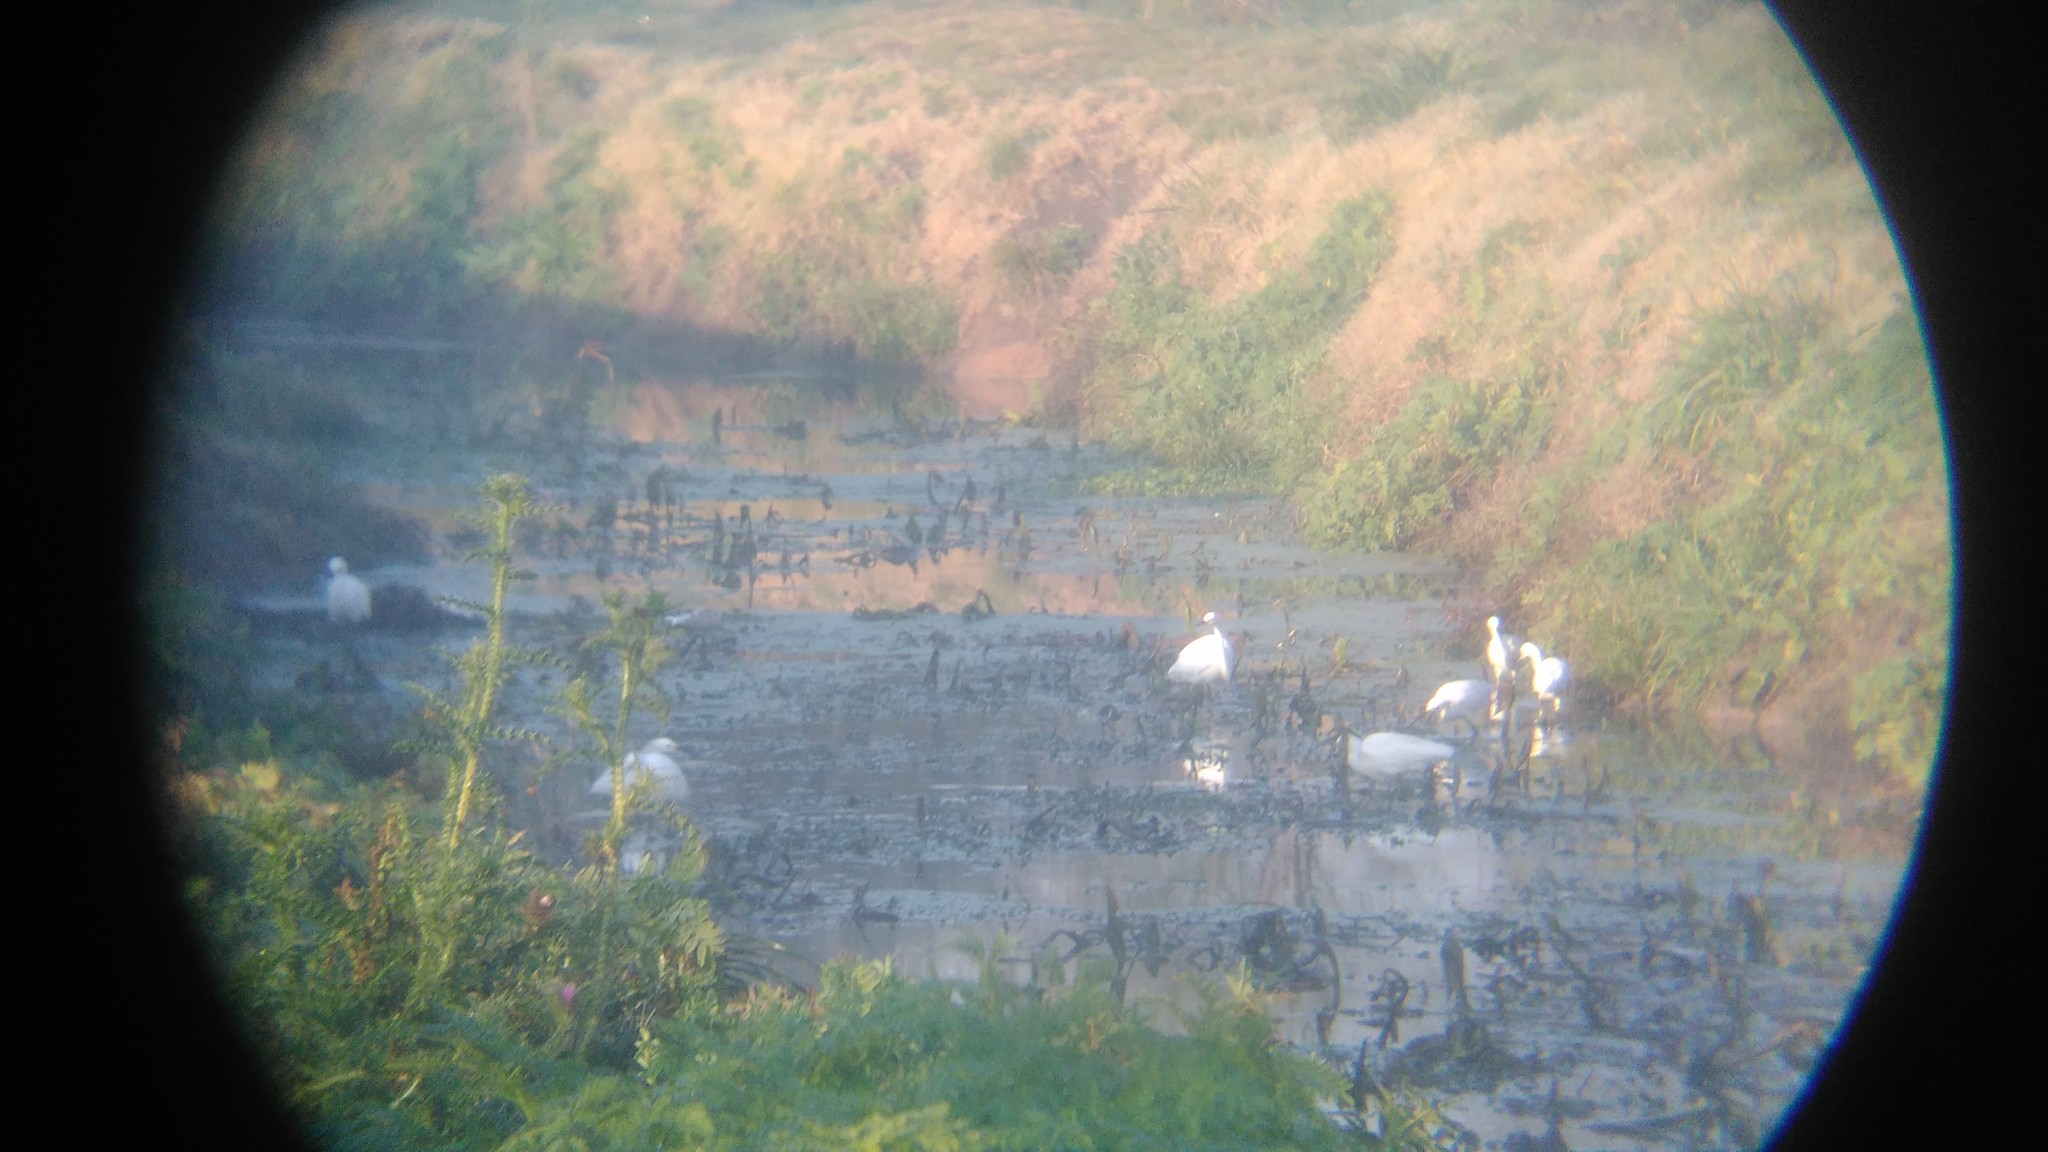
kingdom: Animalia
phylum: Chordata
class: Aves
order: Pelecaniformes
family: Ardeidae
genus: Egretta
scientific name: Egretta thula
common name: Snowy egret
